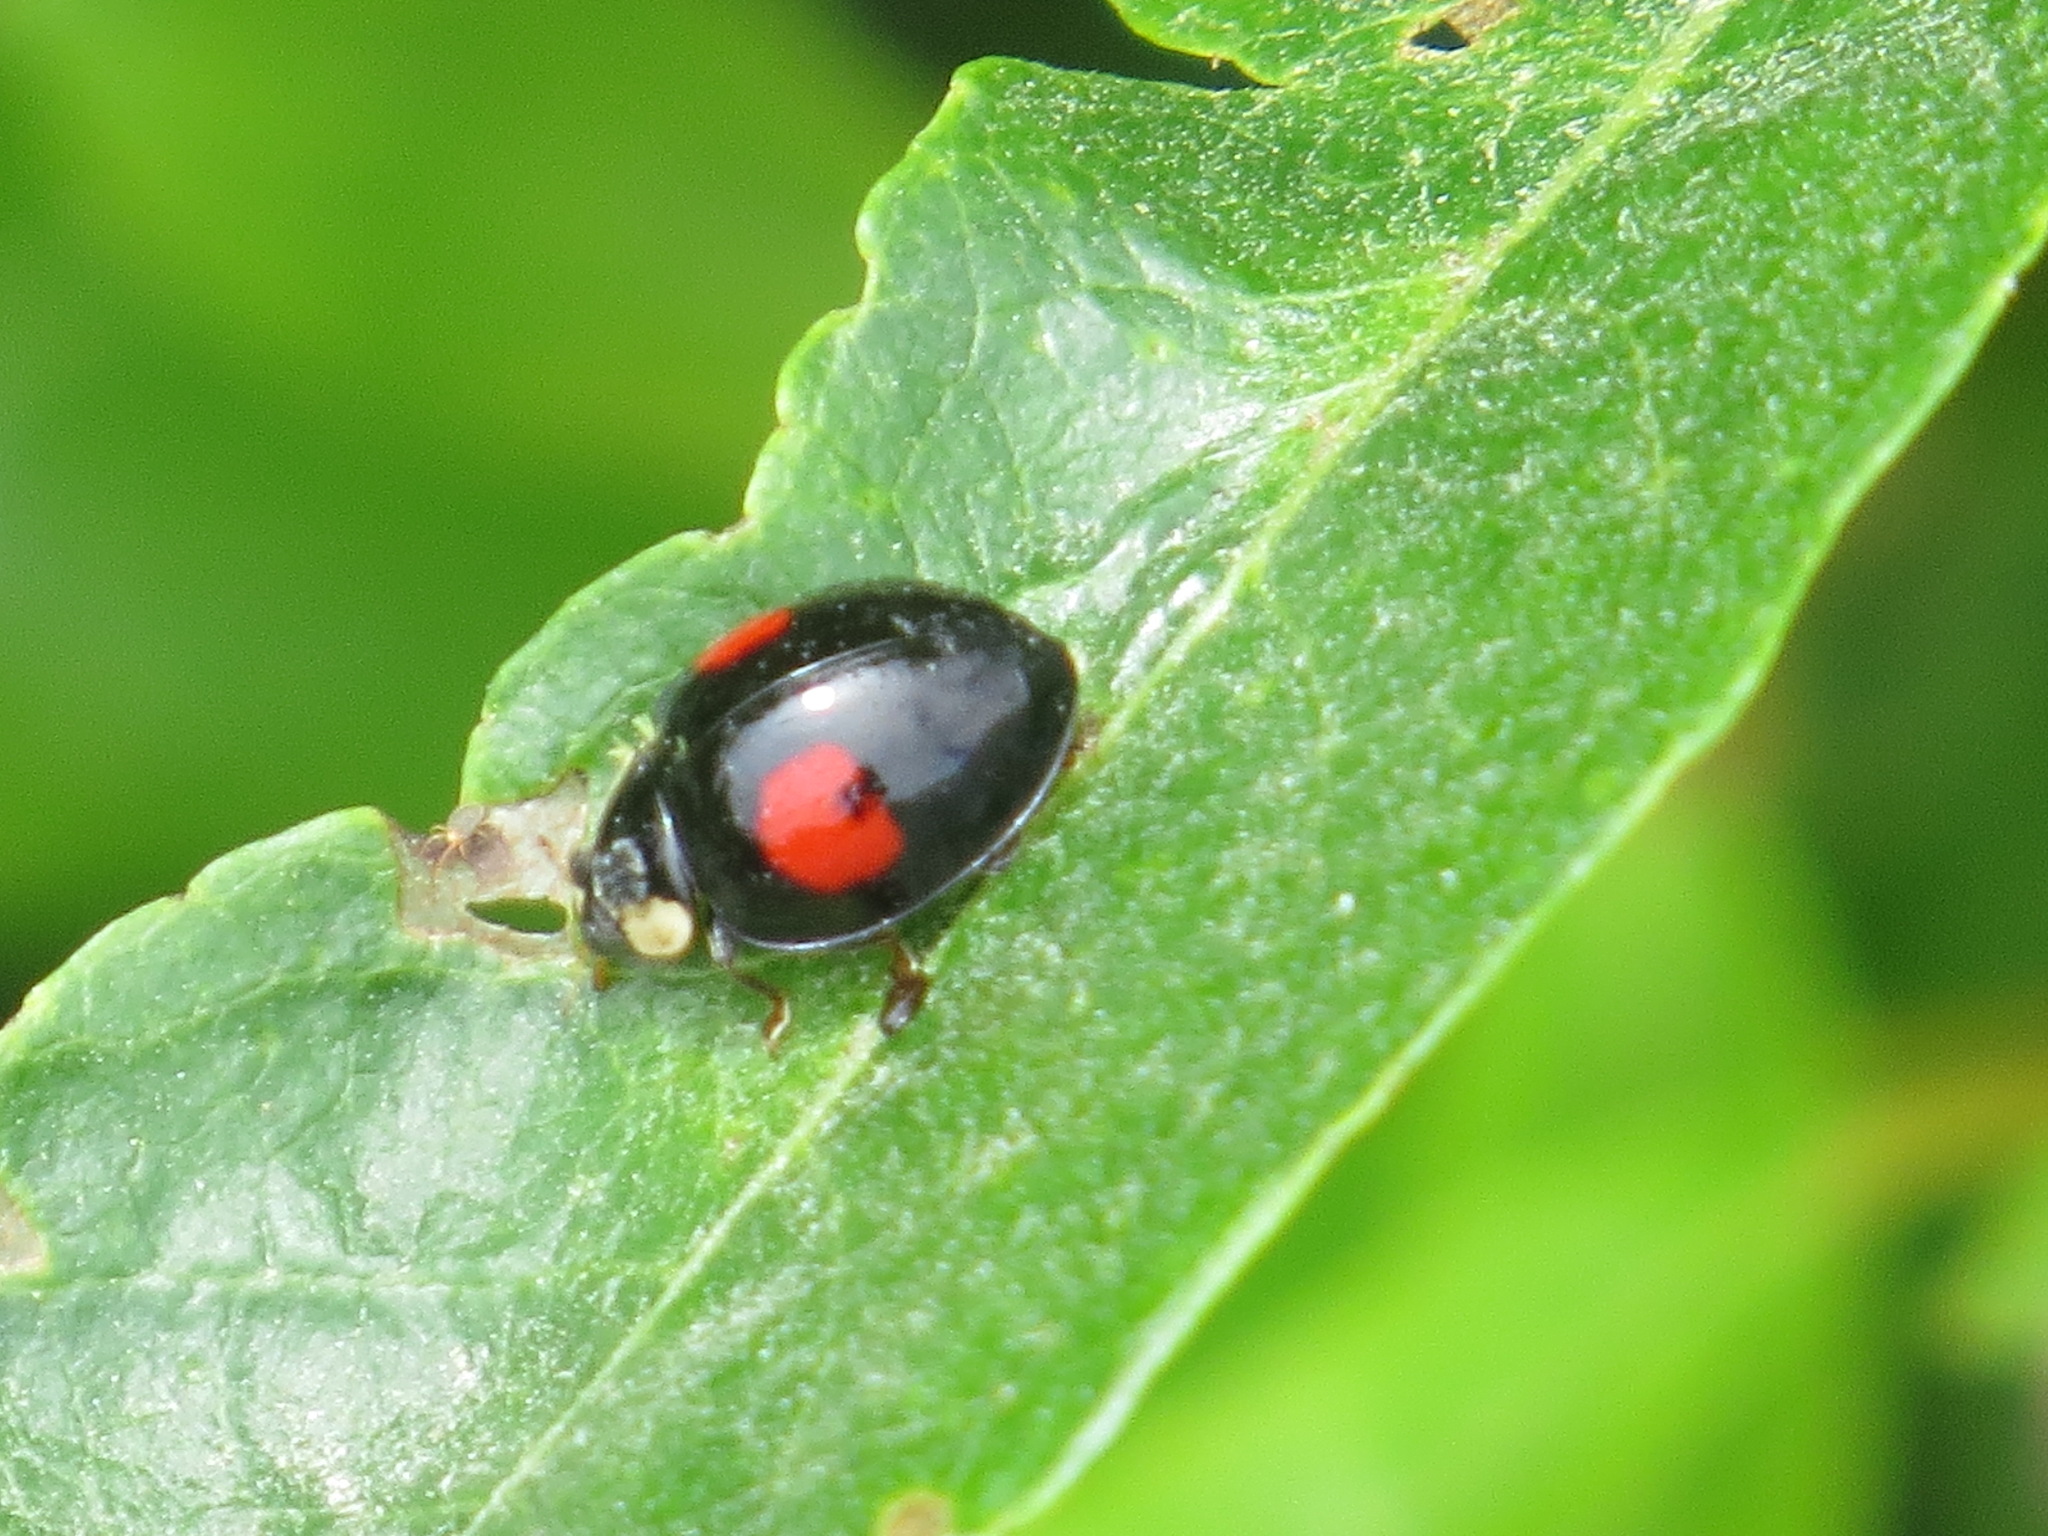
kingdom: Animalia
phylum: Arthropoda
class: Insecta
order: Coleoptera
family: Coccinellidae
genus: Harmonia
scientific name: Harmonia axyridis
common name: Harlequin ladybird
